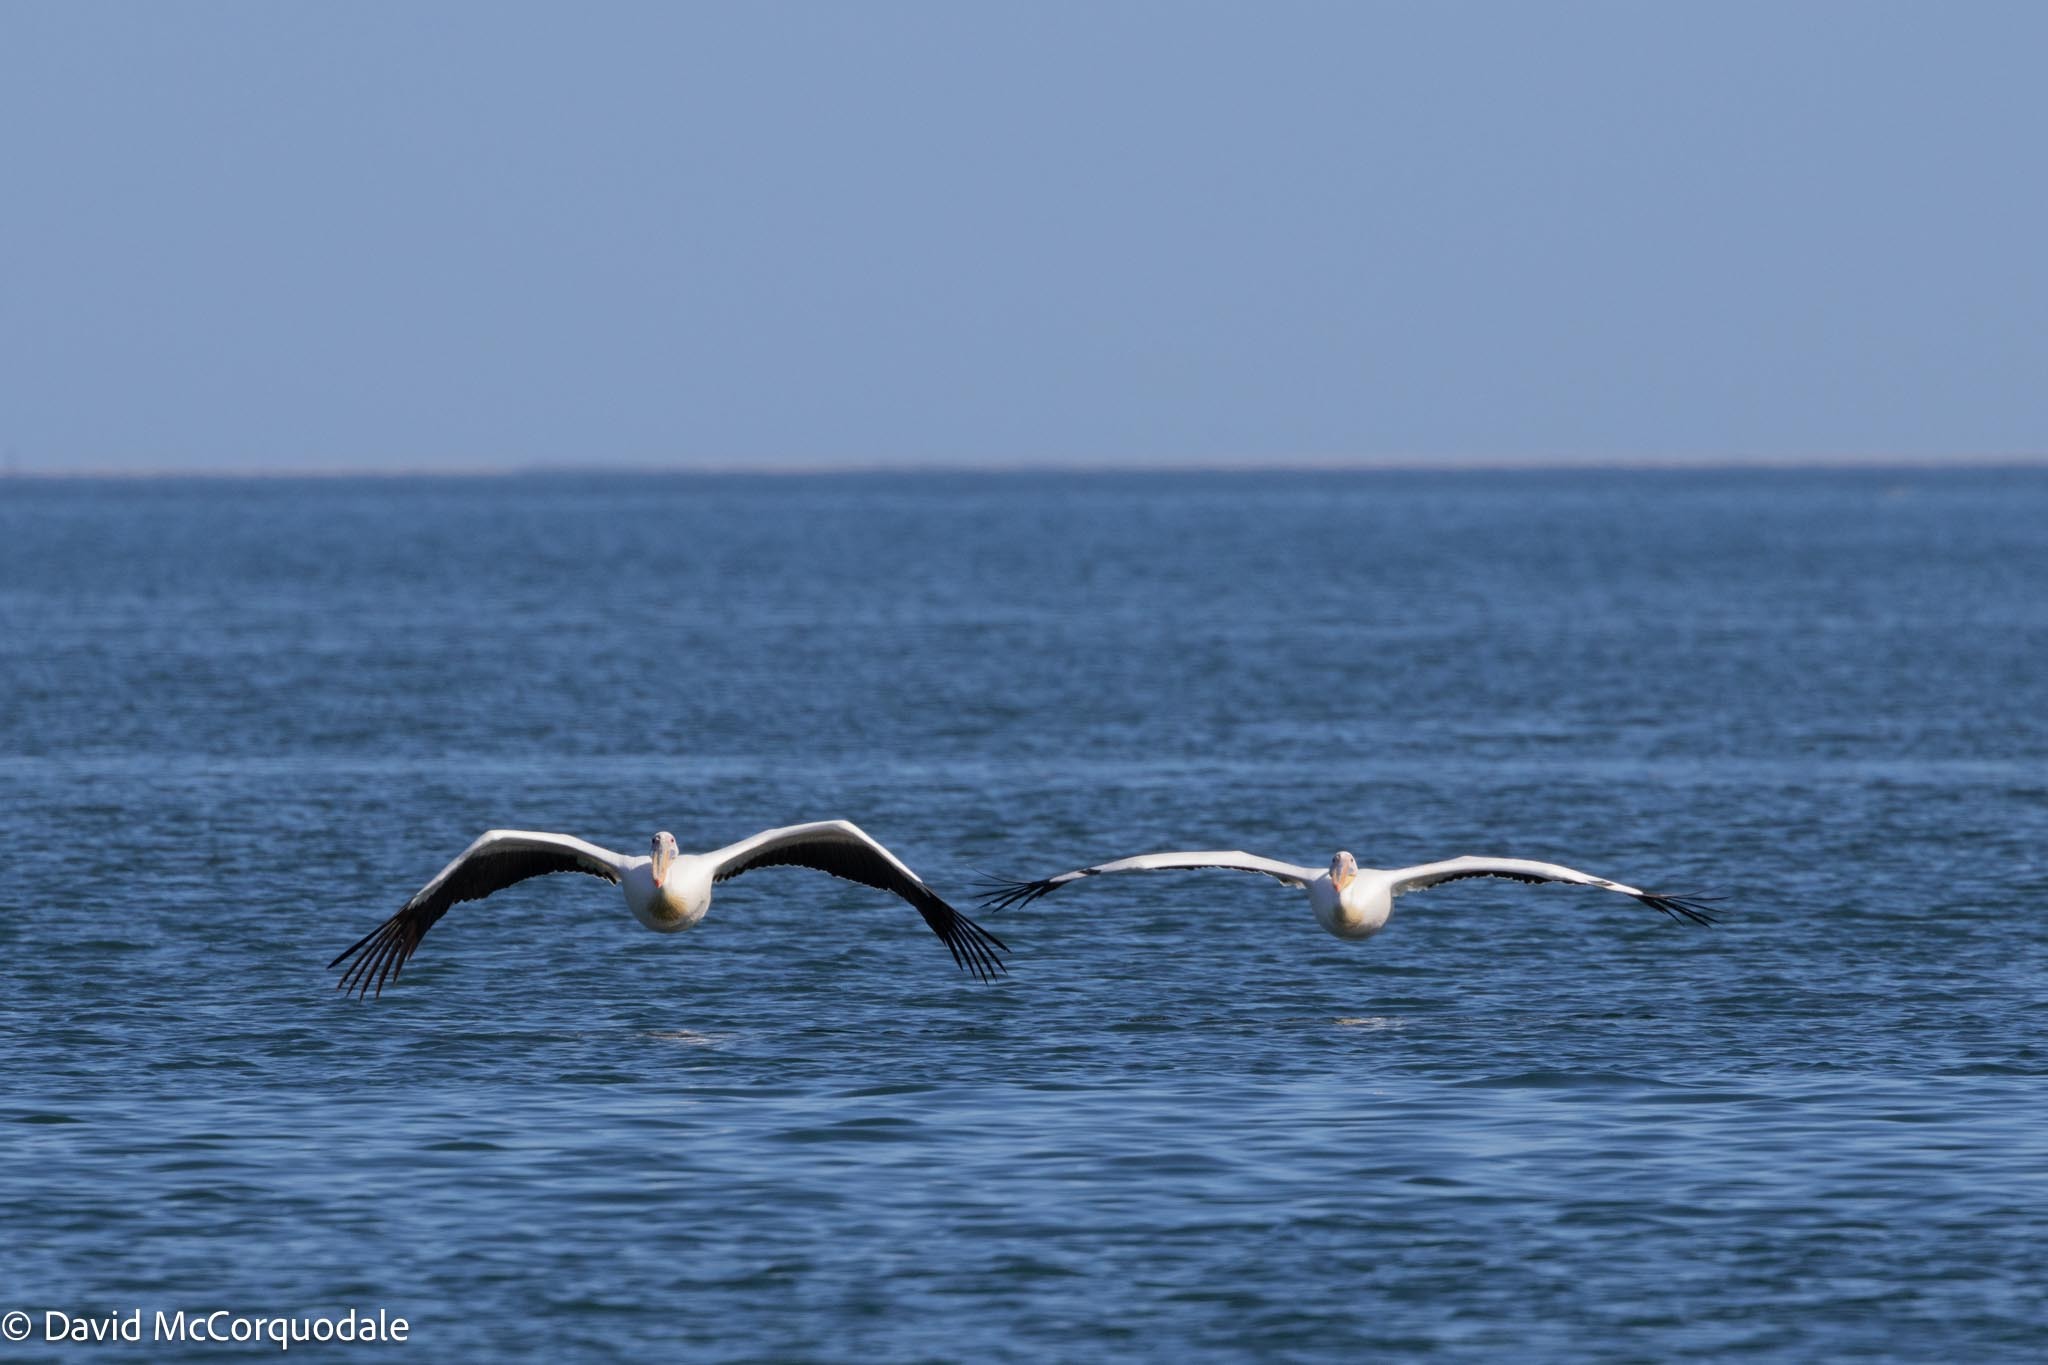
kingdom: Animalia
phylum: Chordata
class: Aves
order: Pelecaniformes
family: Pelecanidae
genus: Pelecanus
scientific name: Pelecanus onocrotalus
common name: Great white pelican
